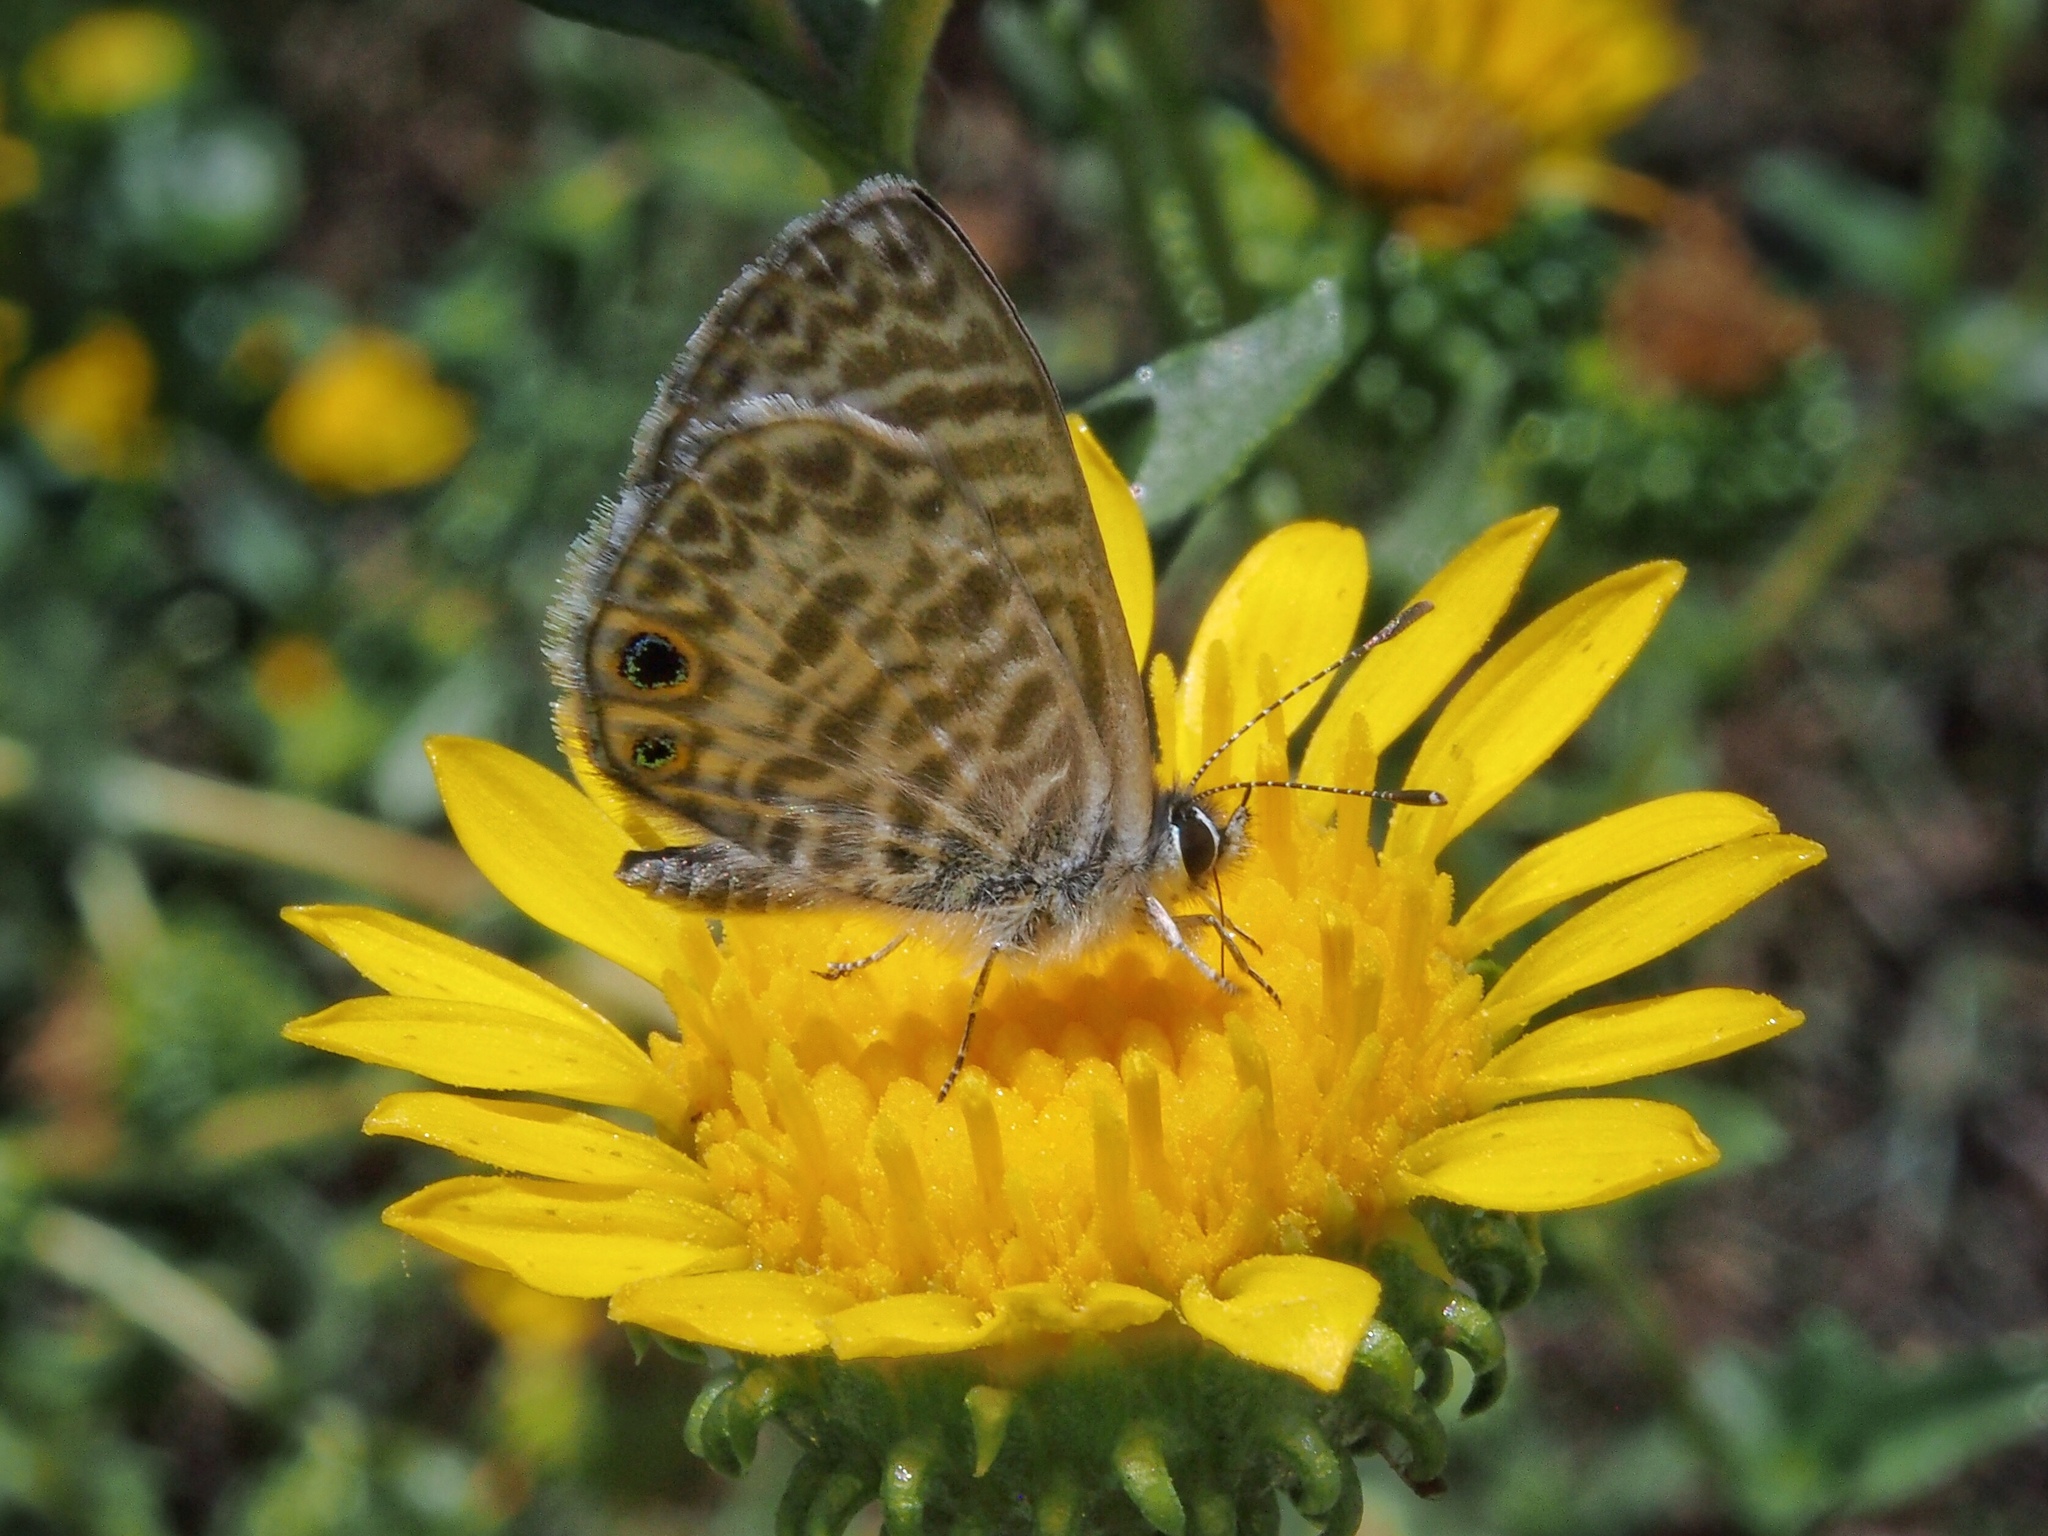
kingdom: Animalia
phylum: Arthropoda
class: Insecta
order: Lepidoptera
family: Lycaenidae
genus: Leptotes
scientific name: Leptotes marina
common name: Marine blue
